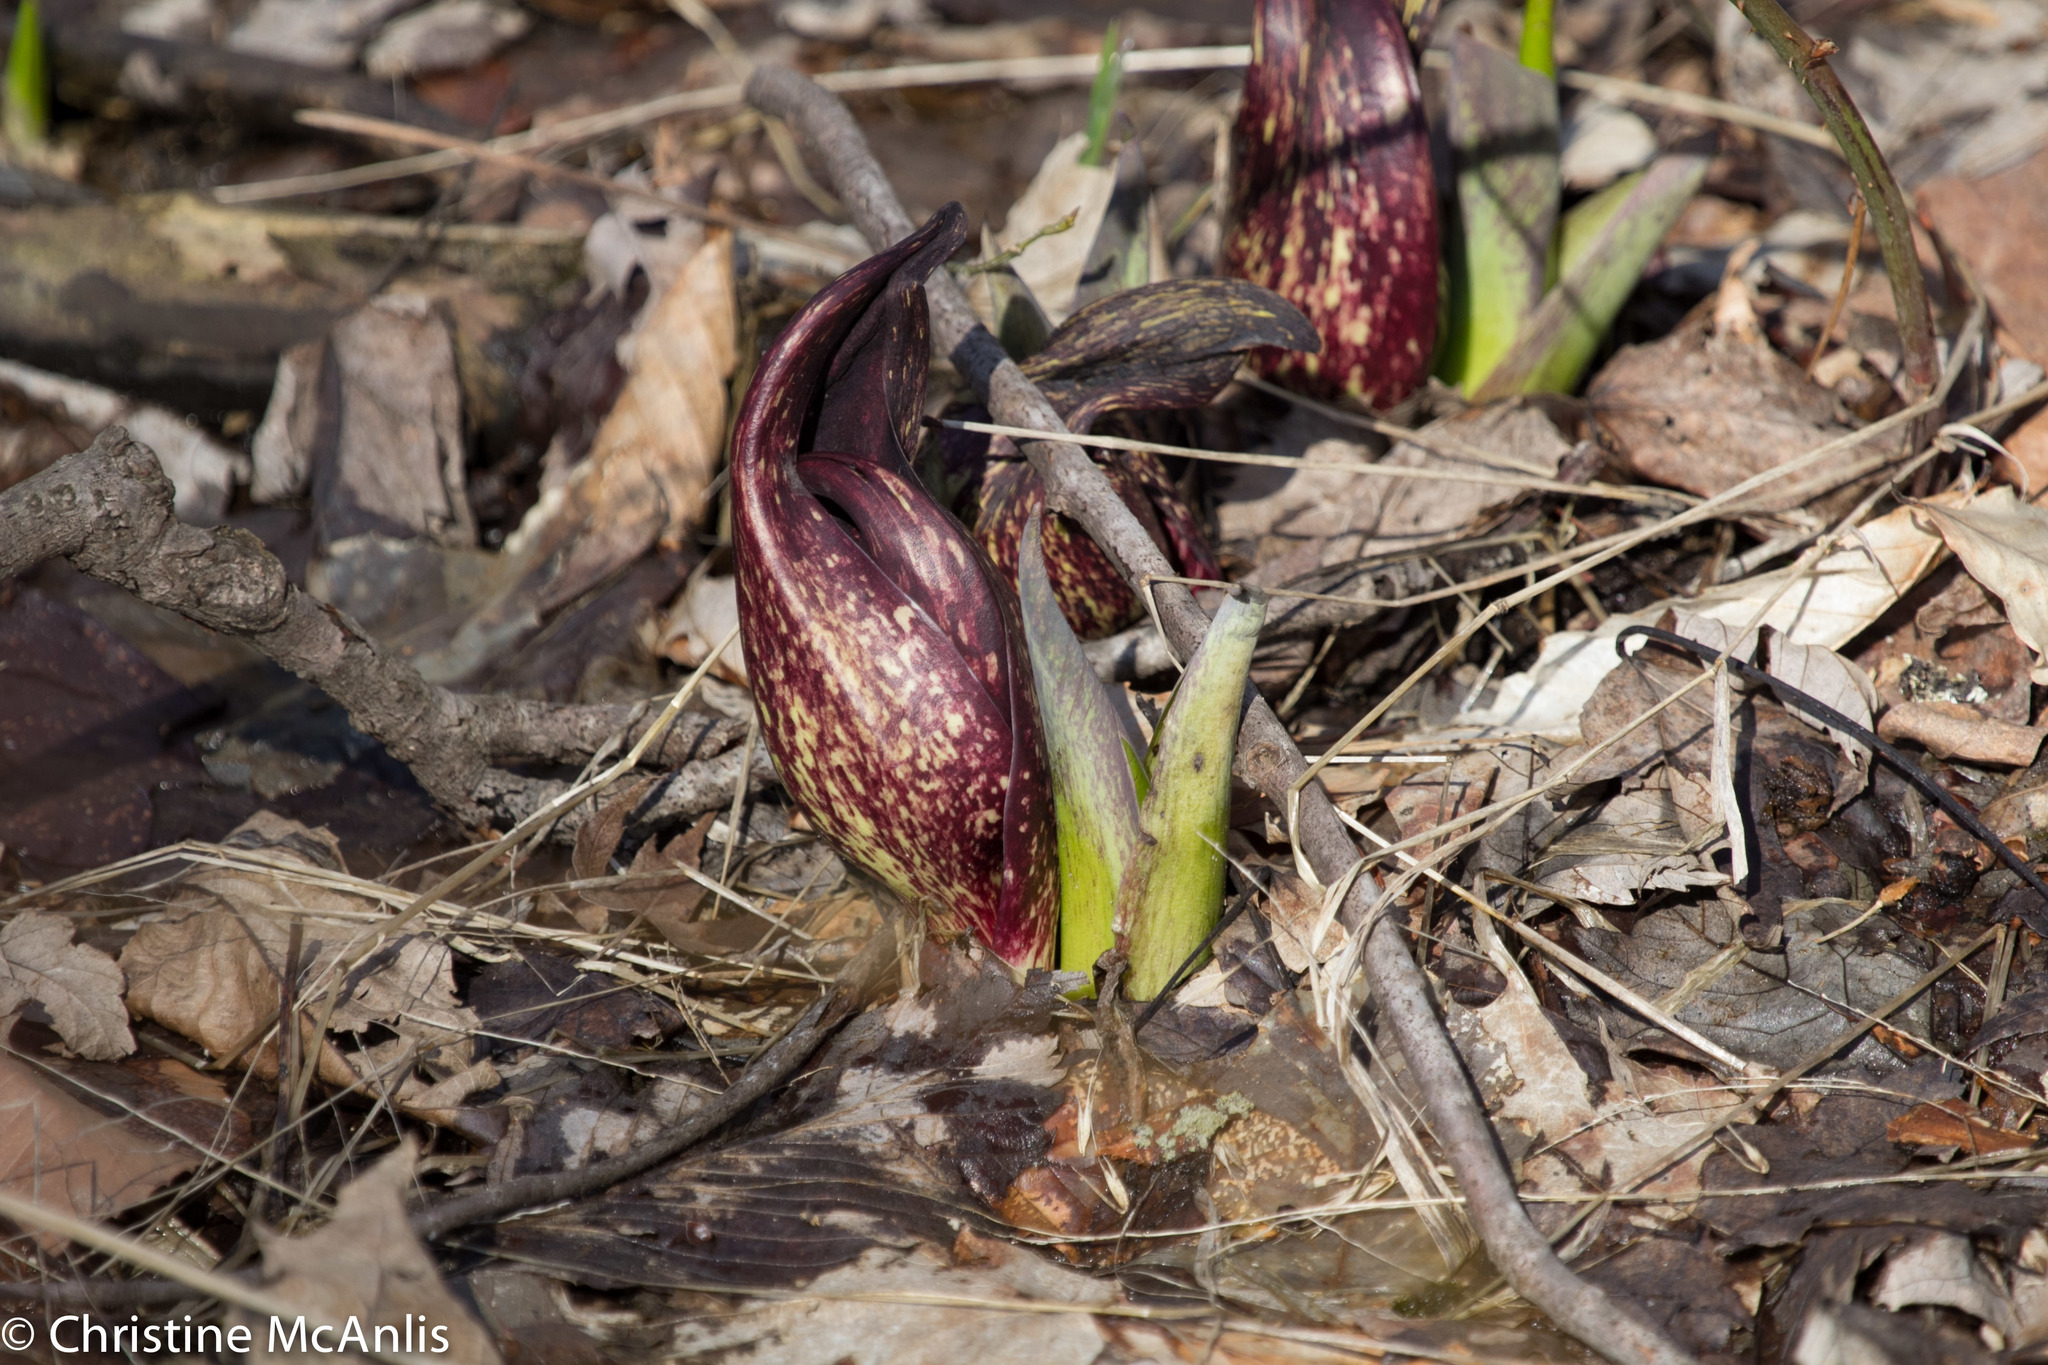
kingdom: Plantae
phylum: Tracheophyta
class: Liliopsida
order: Alismatales
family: Araceae
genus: Symplocarpus
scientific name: Symplocarpus foetidus
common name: Eastern skunk cabbage
